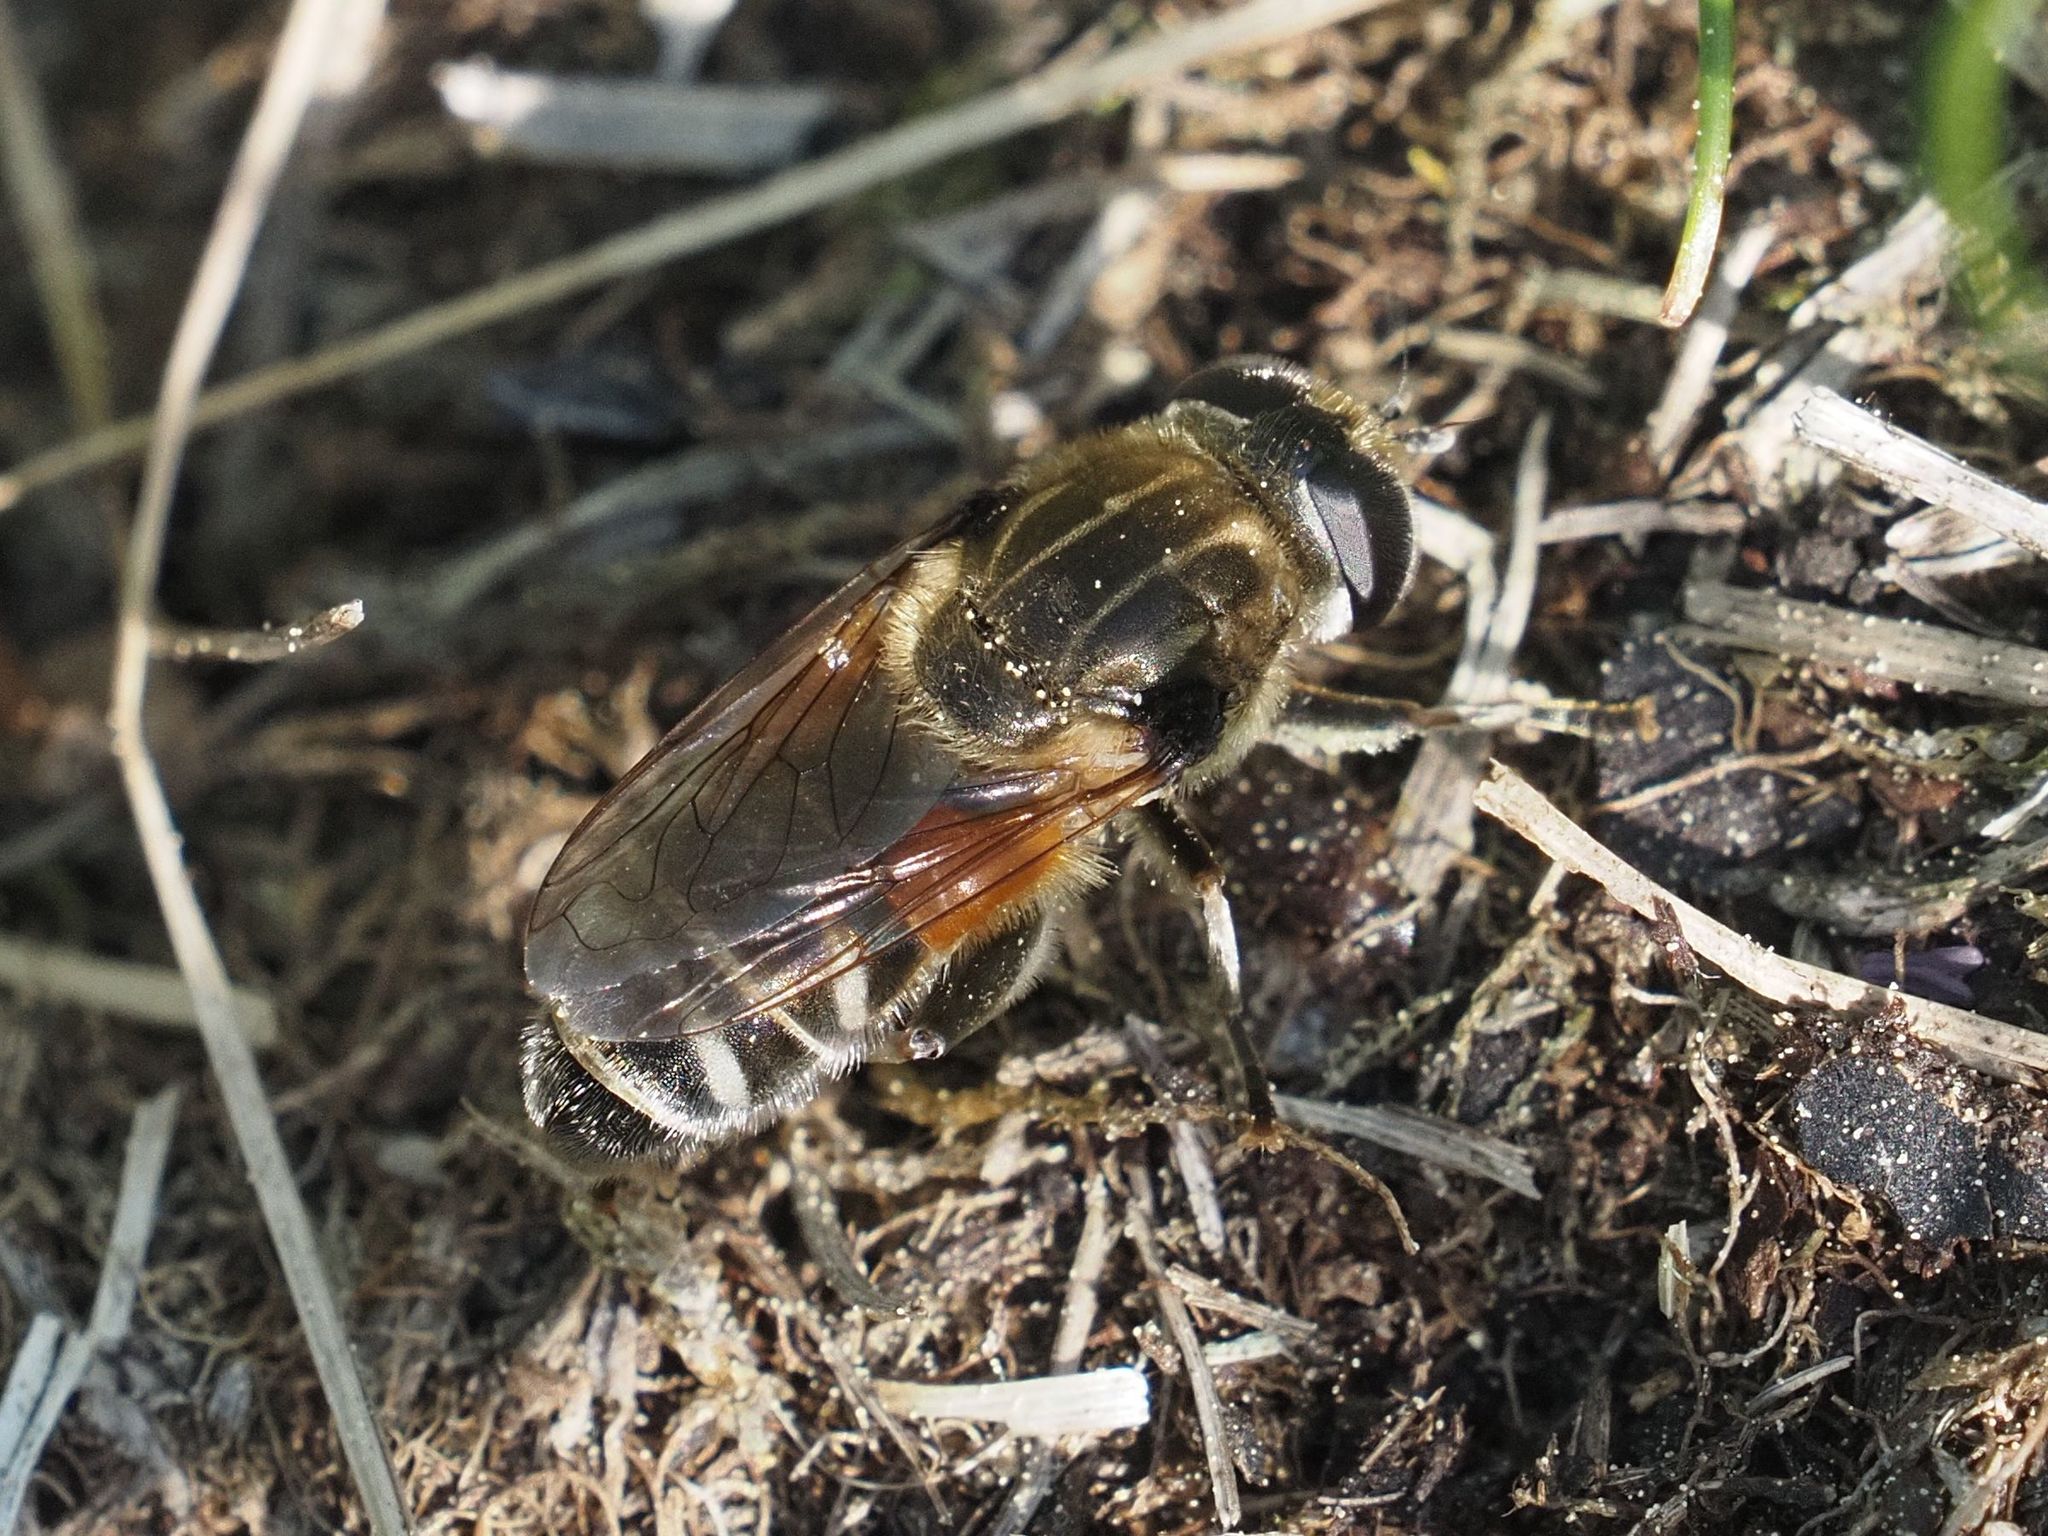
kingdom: Animalia
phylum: Arthropoda
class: Insecta
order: Diptera
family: Syrphidae
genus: Merodon
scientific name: Merodon avidus
